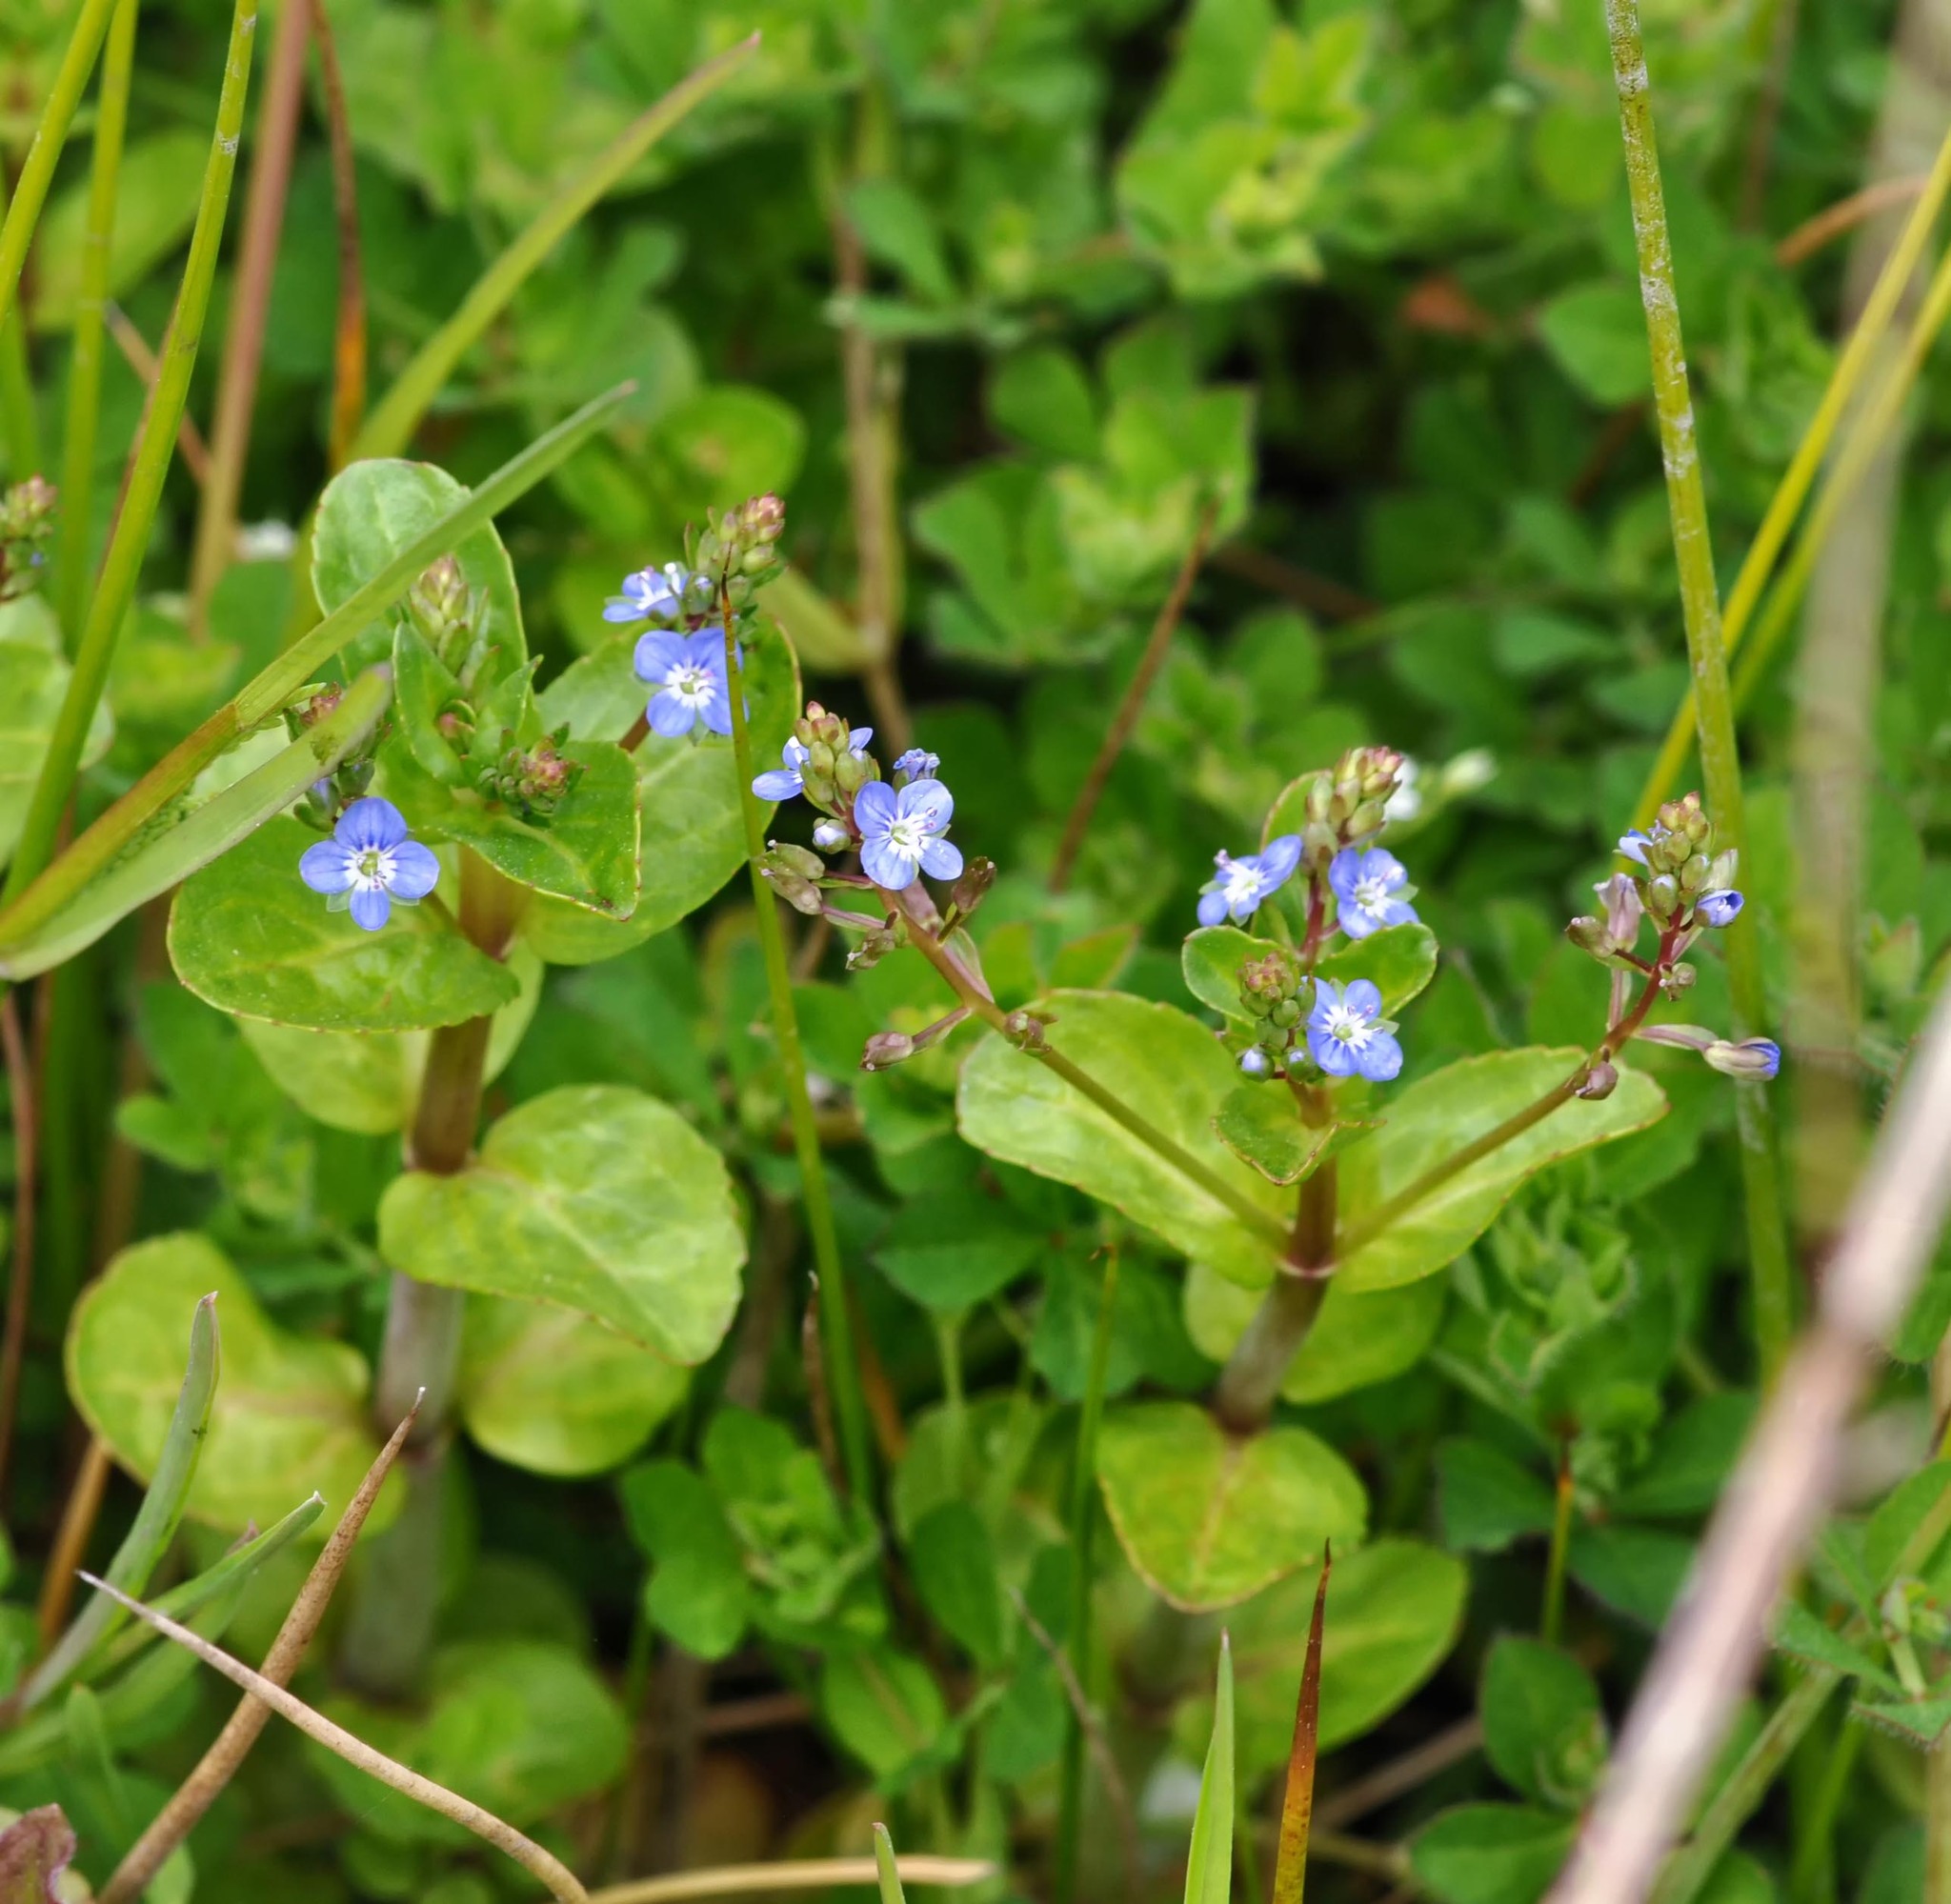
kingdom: Plantae
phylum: Tracheophyta
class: Magnoliopsida
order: Lamiales
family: Plantaginaceae
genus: Veronica
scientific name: Veronica beccabunga
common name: Brooklime
